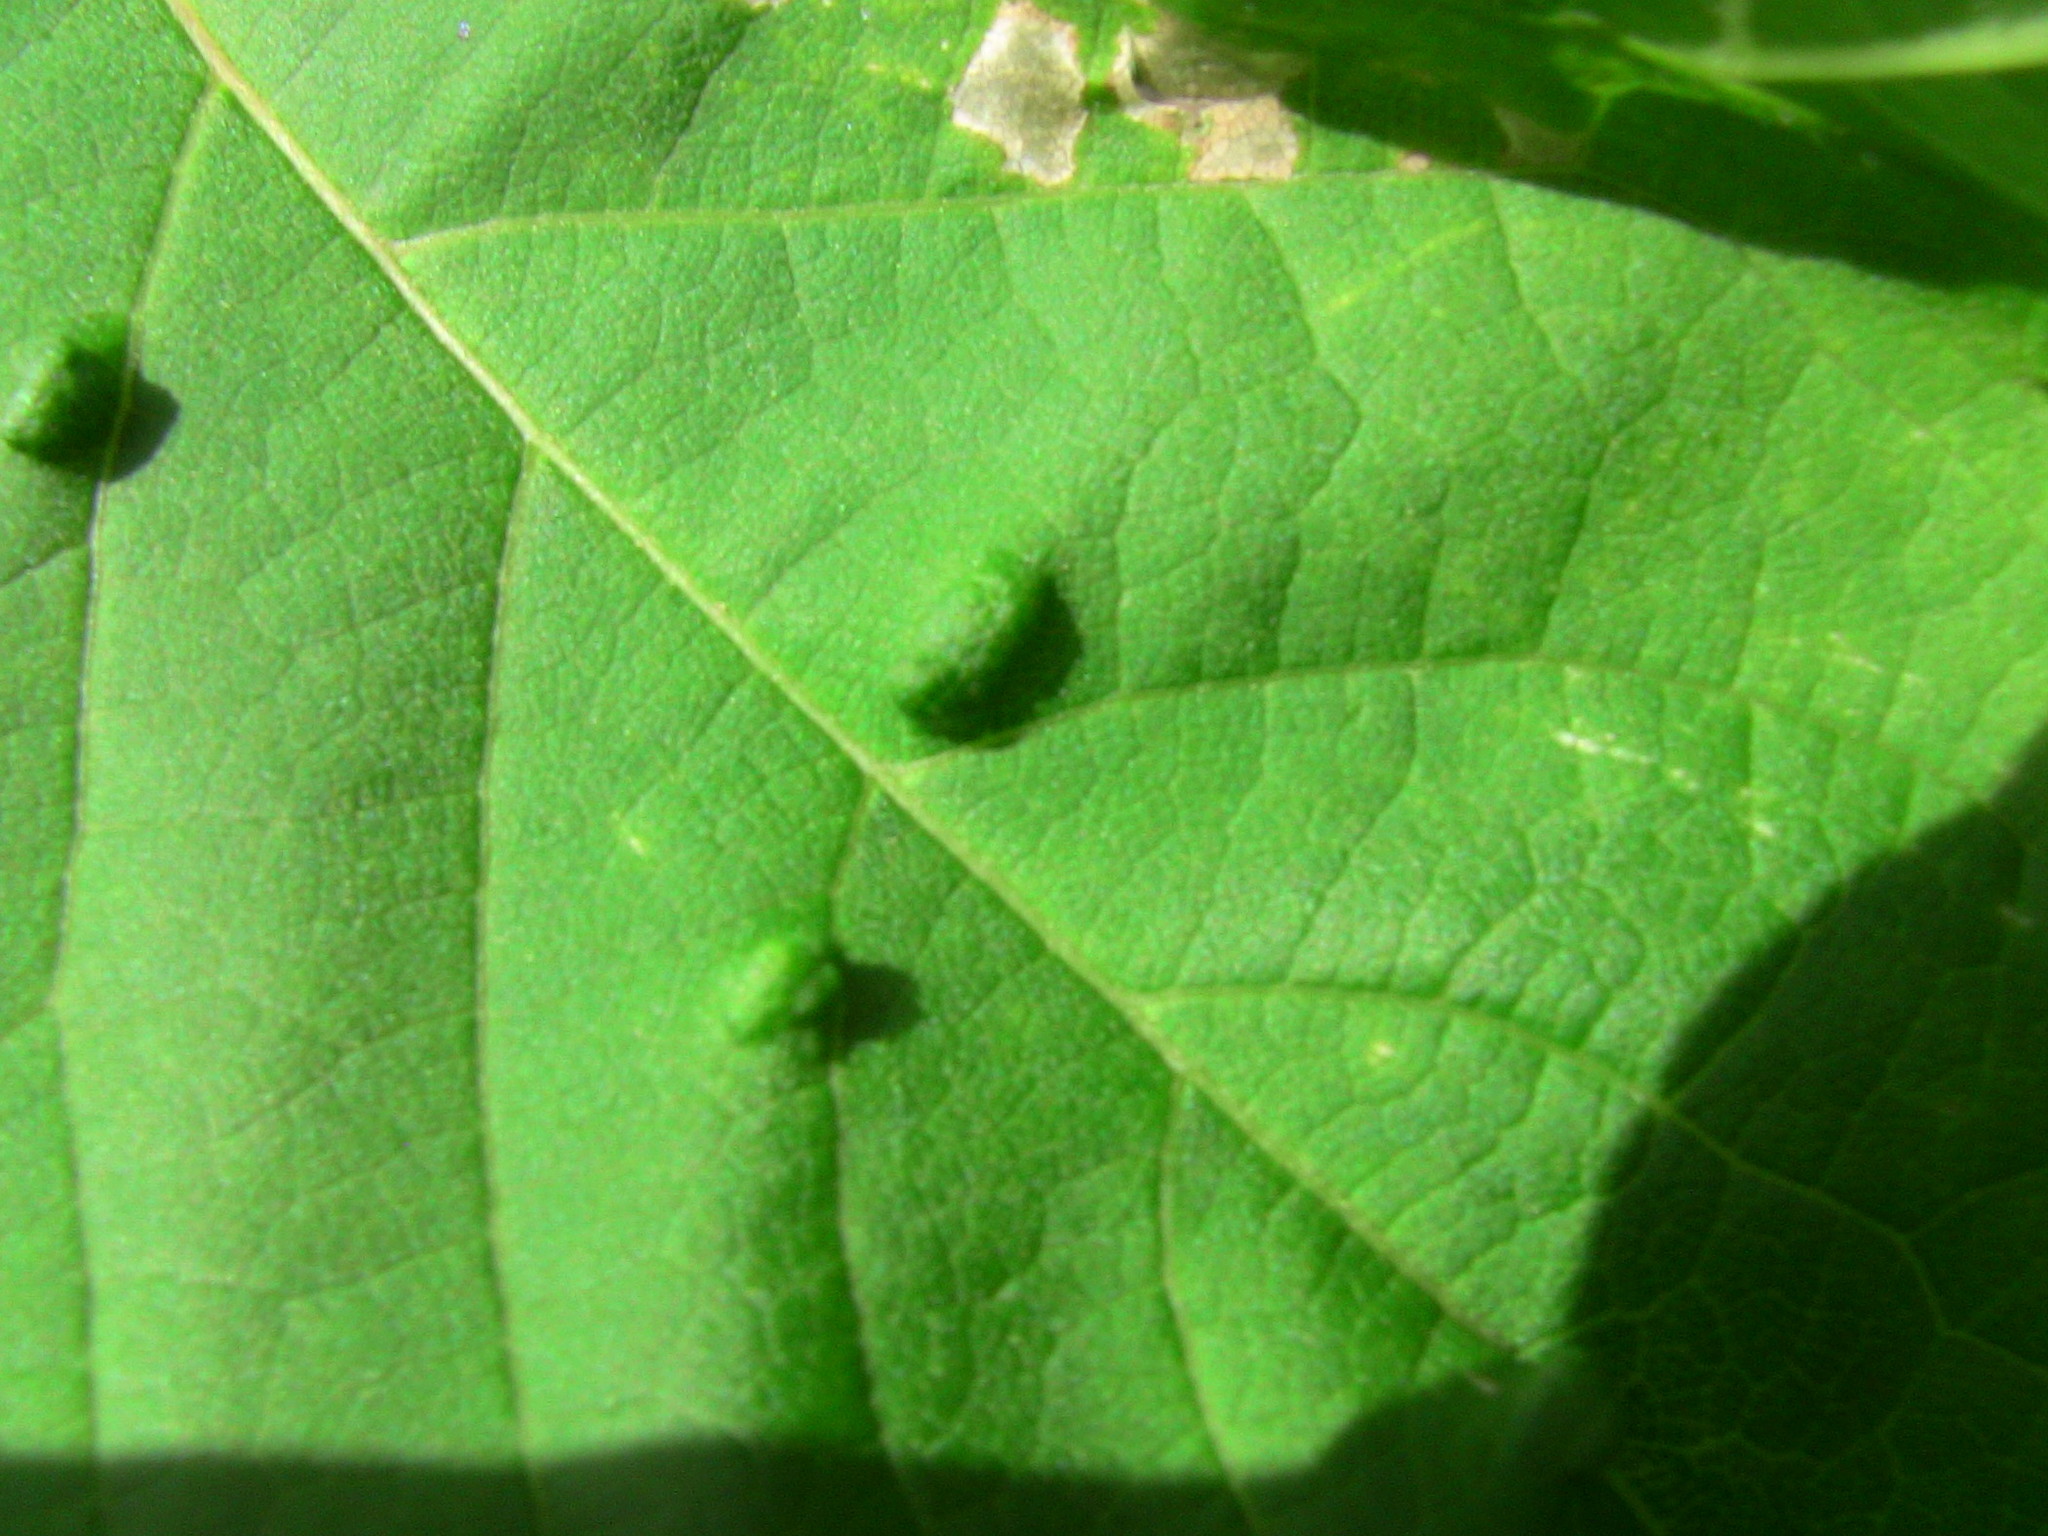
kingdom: Animalia
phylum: Arthropoda
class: Arachnida
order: Trombidiformes
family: Eriophyidae
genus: Aceria
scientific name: Aceria
